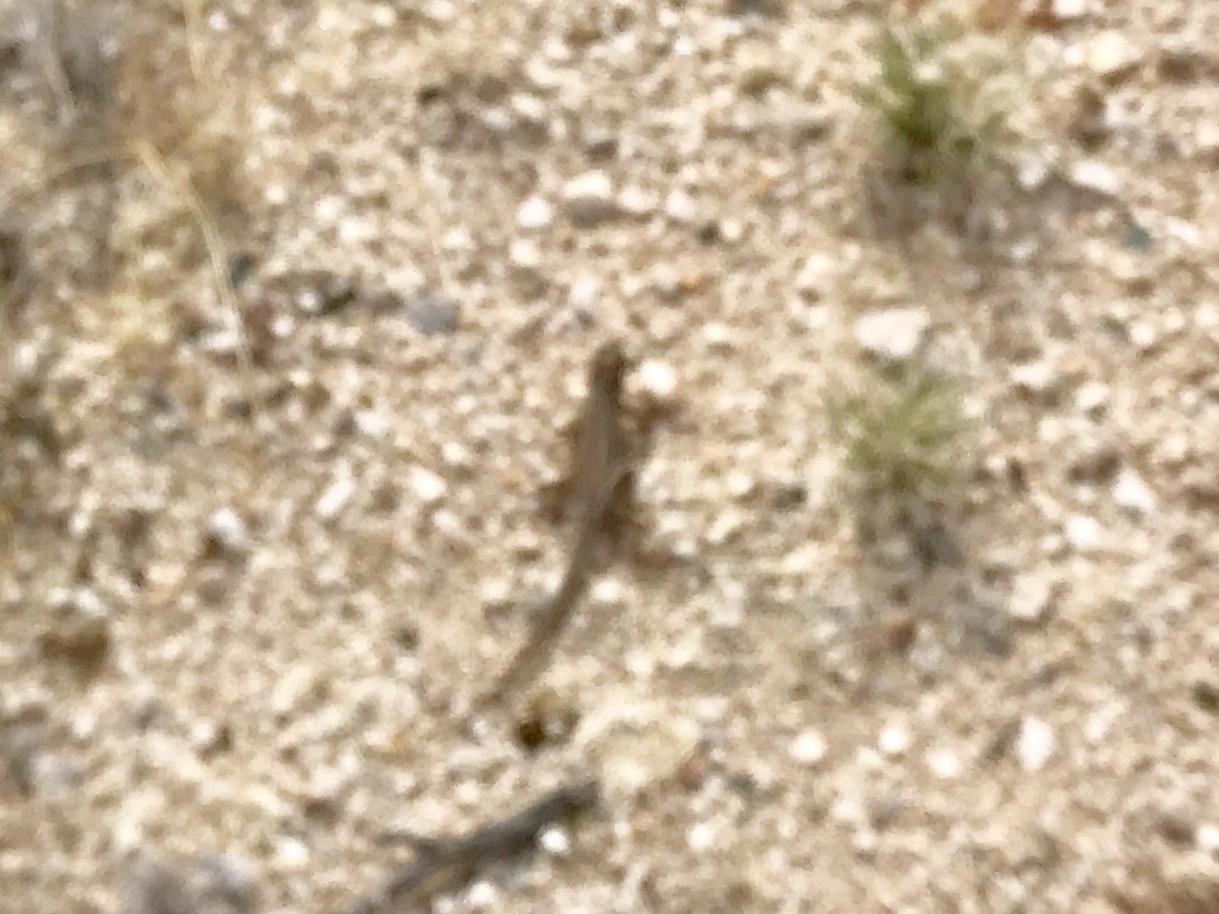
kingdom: Animalia
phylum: Chordata
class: Squamata
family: Phrynosomatidae
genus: Uta
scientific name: Uta stansburiana
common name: Side-blotched lizard
